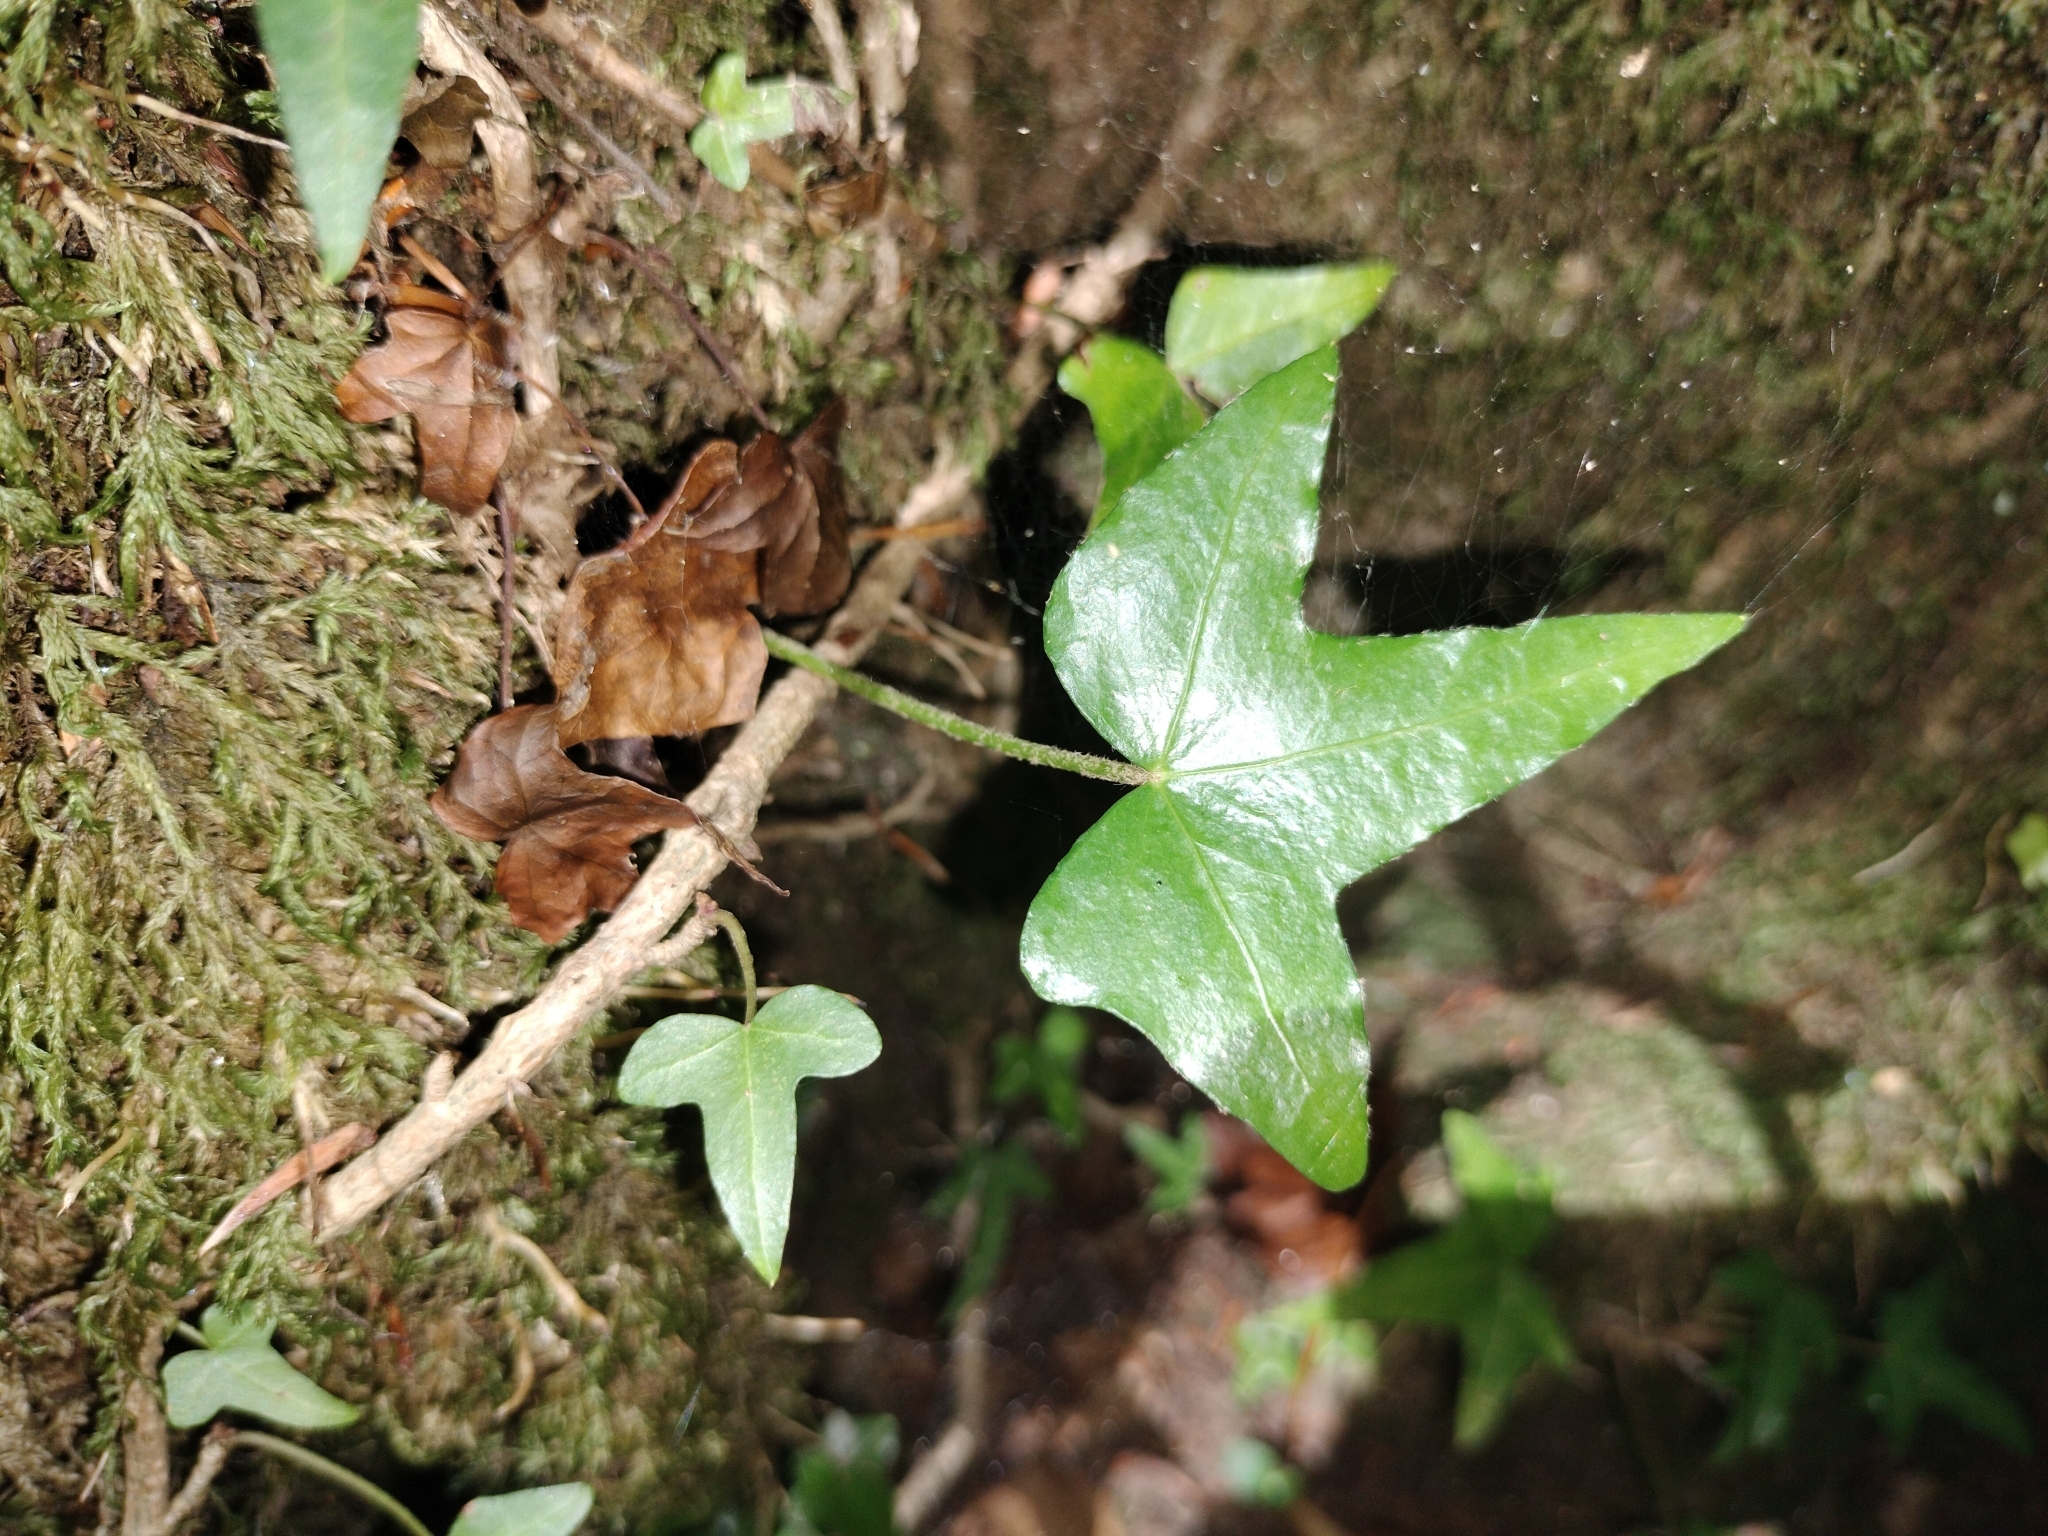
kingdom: Plantae
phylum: Tracheophyta
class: Magnoliopsida
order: Apiales
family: Araliaceae
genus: Hedera
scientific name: Hedera helix
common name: Ivy
